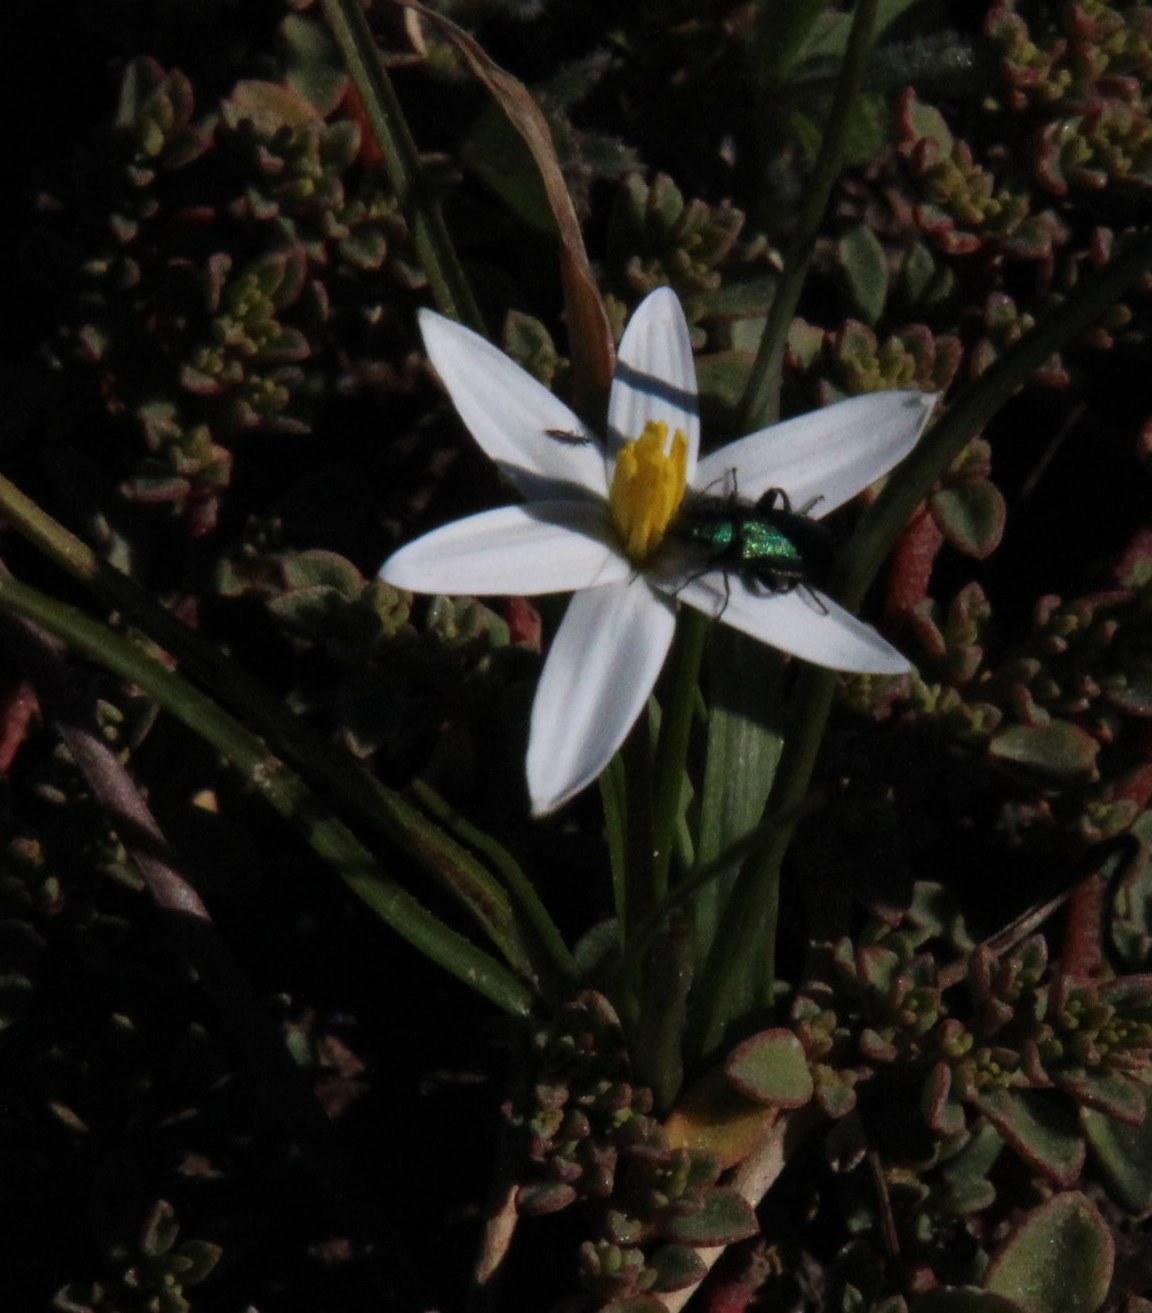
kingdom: Plantae
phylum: Tracheophyta
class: Liliopsida
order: Asparagales
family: Hypoxidaceae
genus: Pauridia
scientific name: Pauridia serrata
